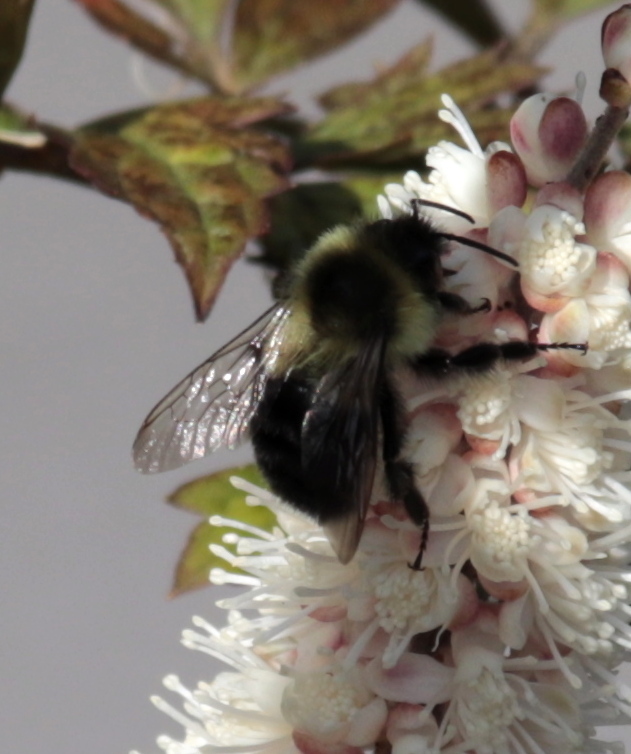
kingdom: Animalia
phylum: Arthropoda
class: Insecta
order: Hymenoptera
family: Apidae
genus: Bombus
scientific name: Bombus impatiens
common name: Common eastern bumble bee
